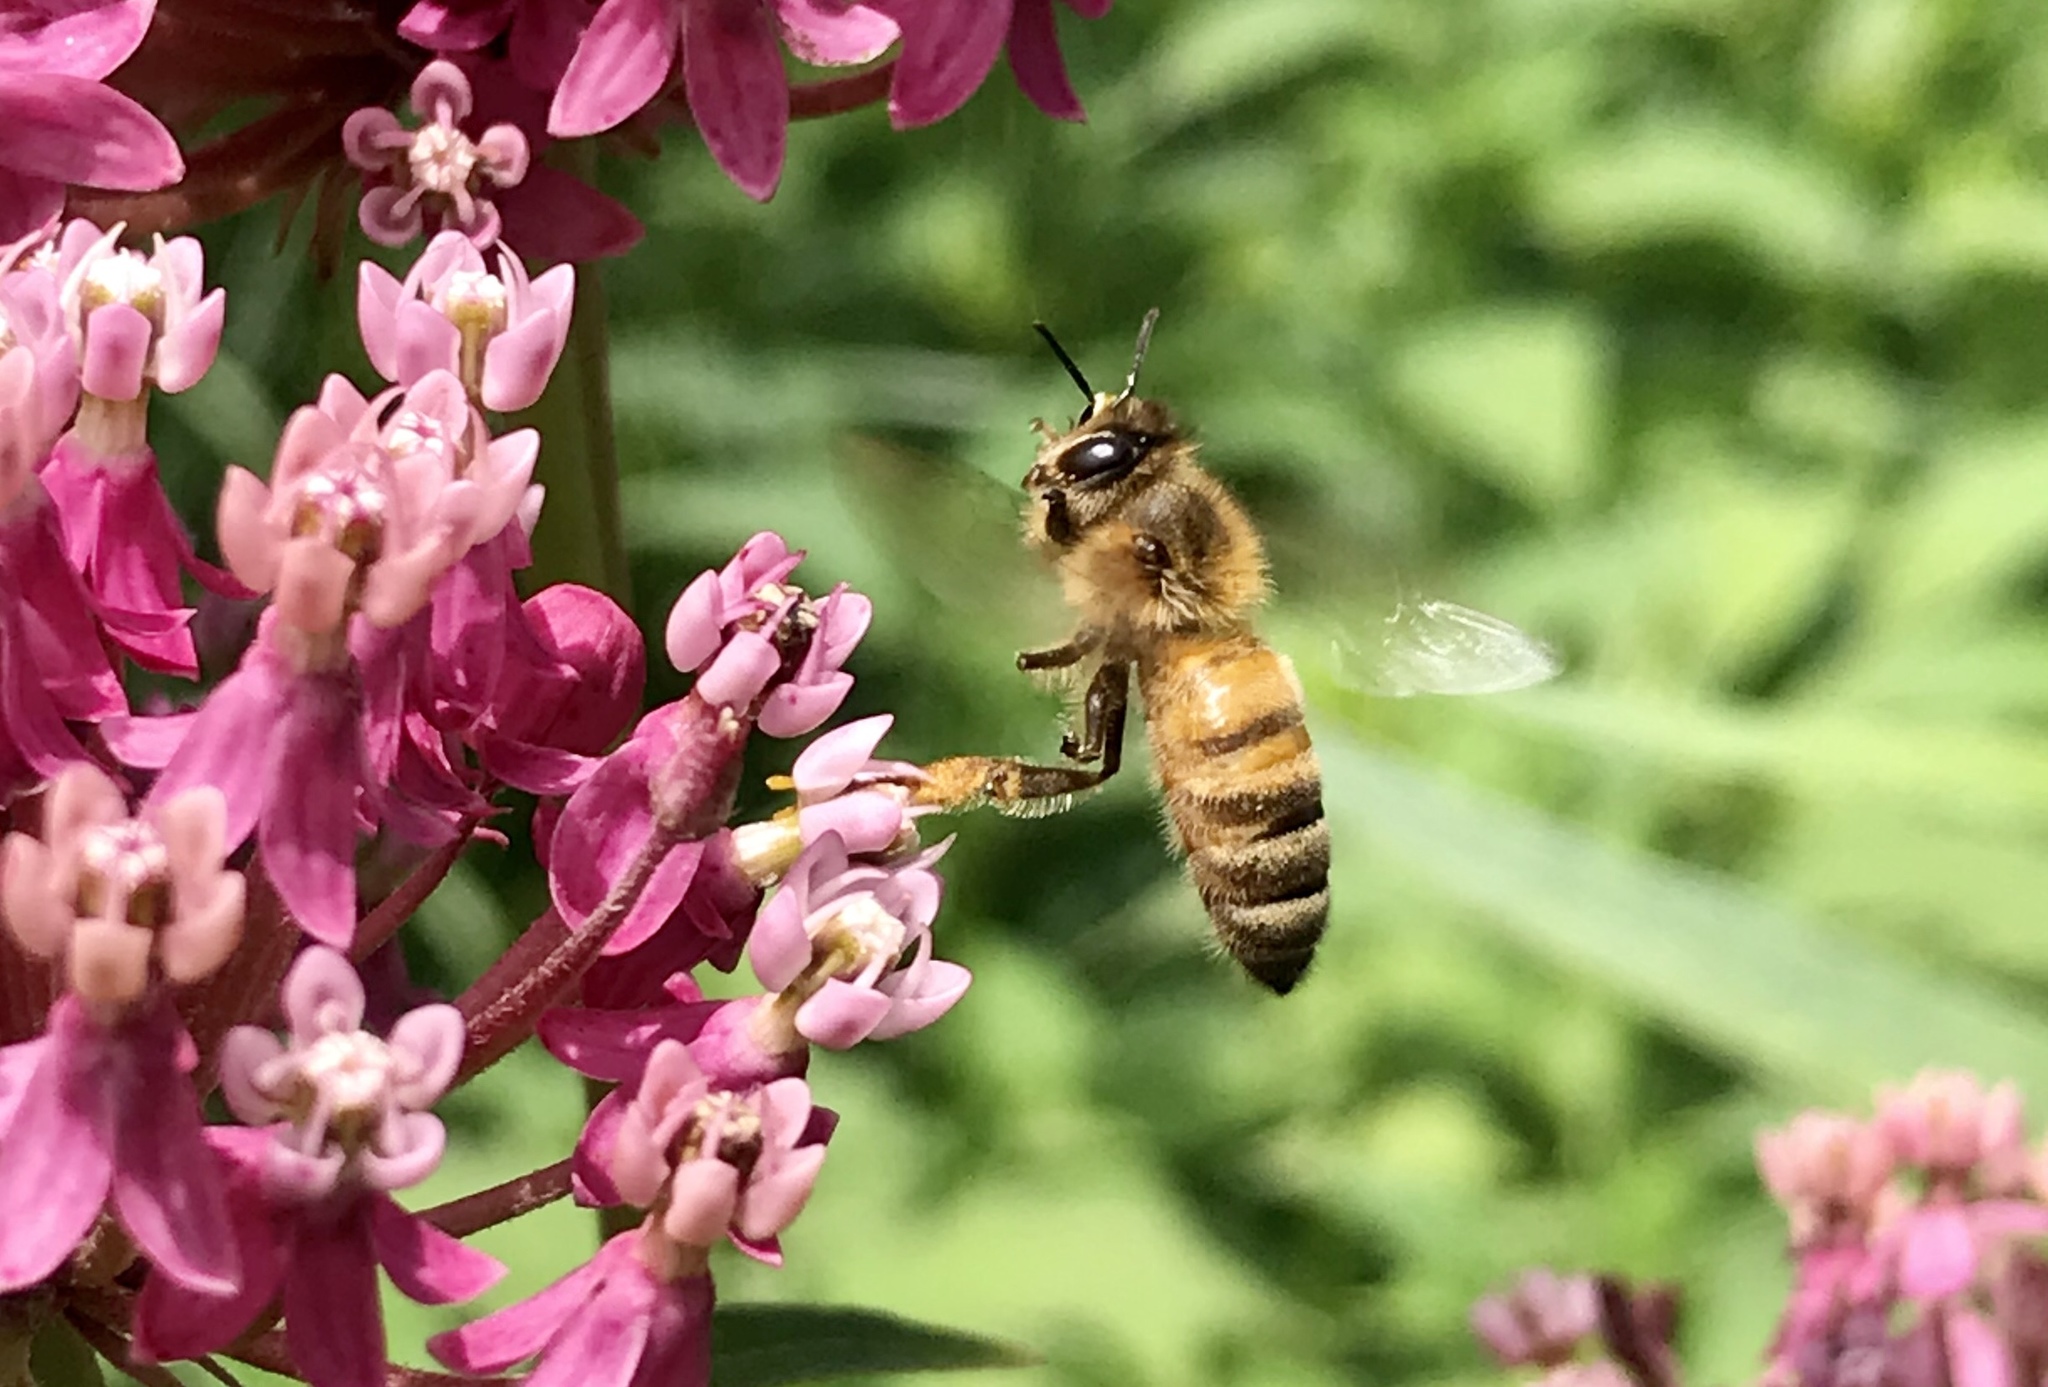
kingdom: Animalia
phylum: Arthropoda
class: Insecta
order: Hymenoptera
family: Apidae
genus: Apis
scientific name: Apis mellifera
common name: Honey bee
